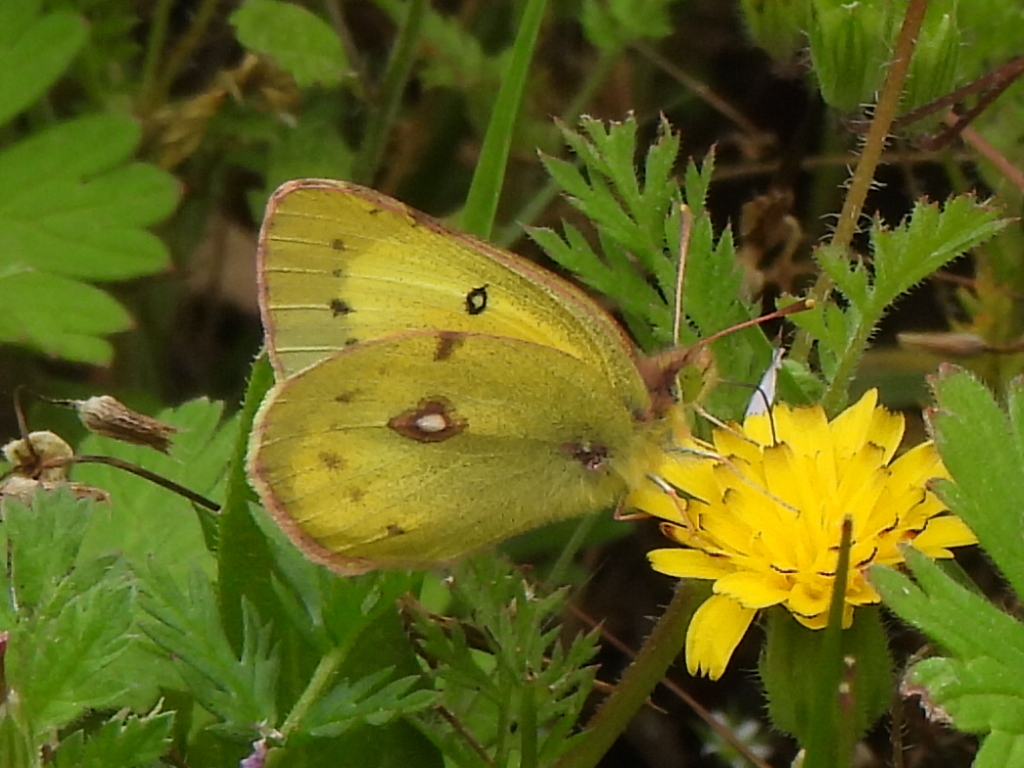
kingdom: Animalia
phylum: Arthropoda
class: Insecta
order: Lepidoptera
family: Pieridae
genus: Colias
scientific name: Colias eurytheme
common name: Alfalfa butterfly
